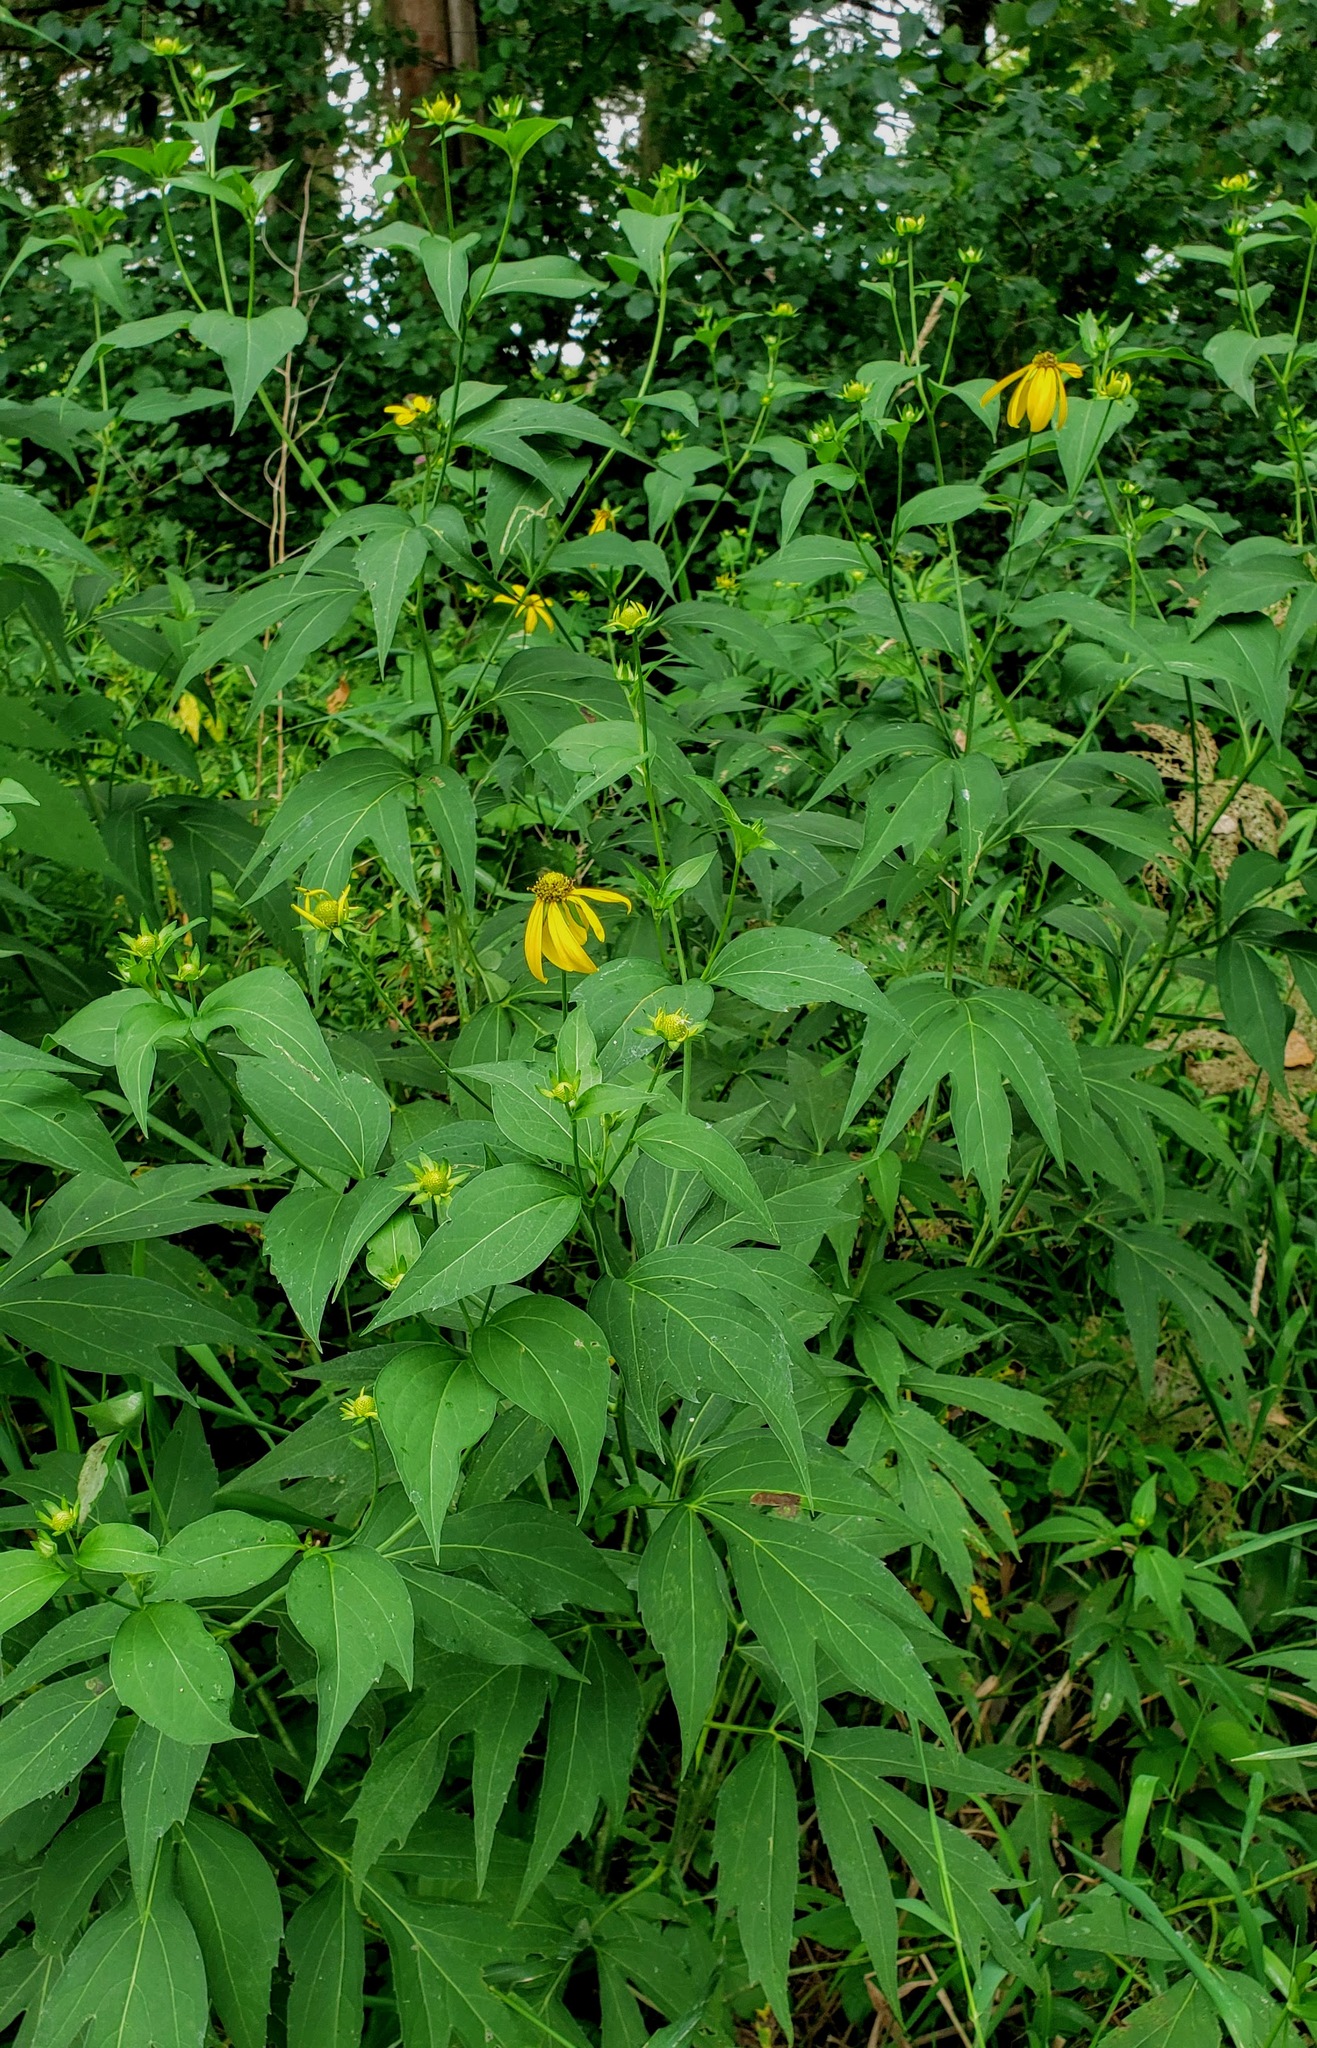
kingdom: Plantae
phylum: Tracheophyta
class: Magnoliopsida
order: Asterales
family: Asteraceae
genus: Rudbeckia
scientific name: Rudbeckia laciniata
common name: Coneflower
